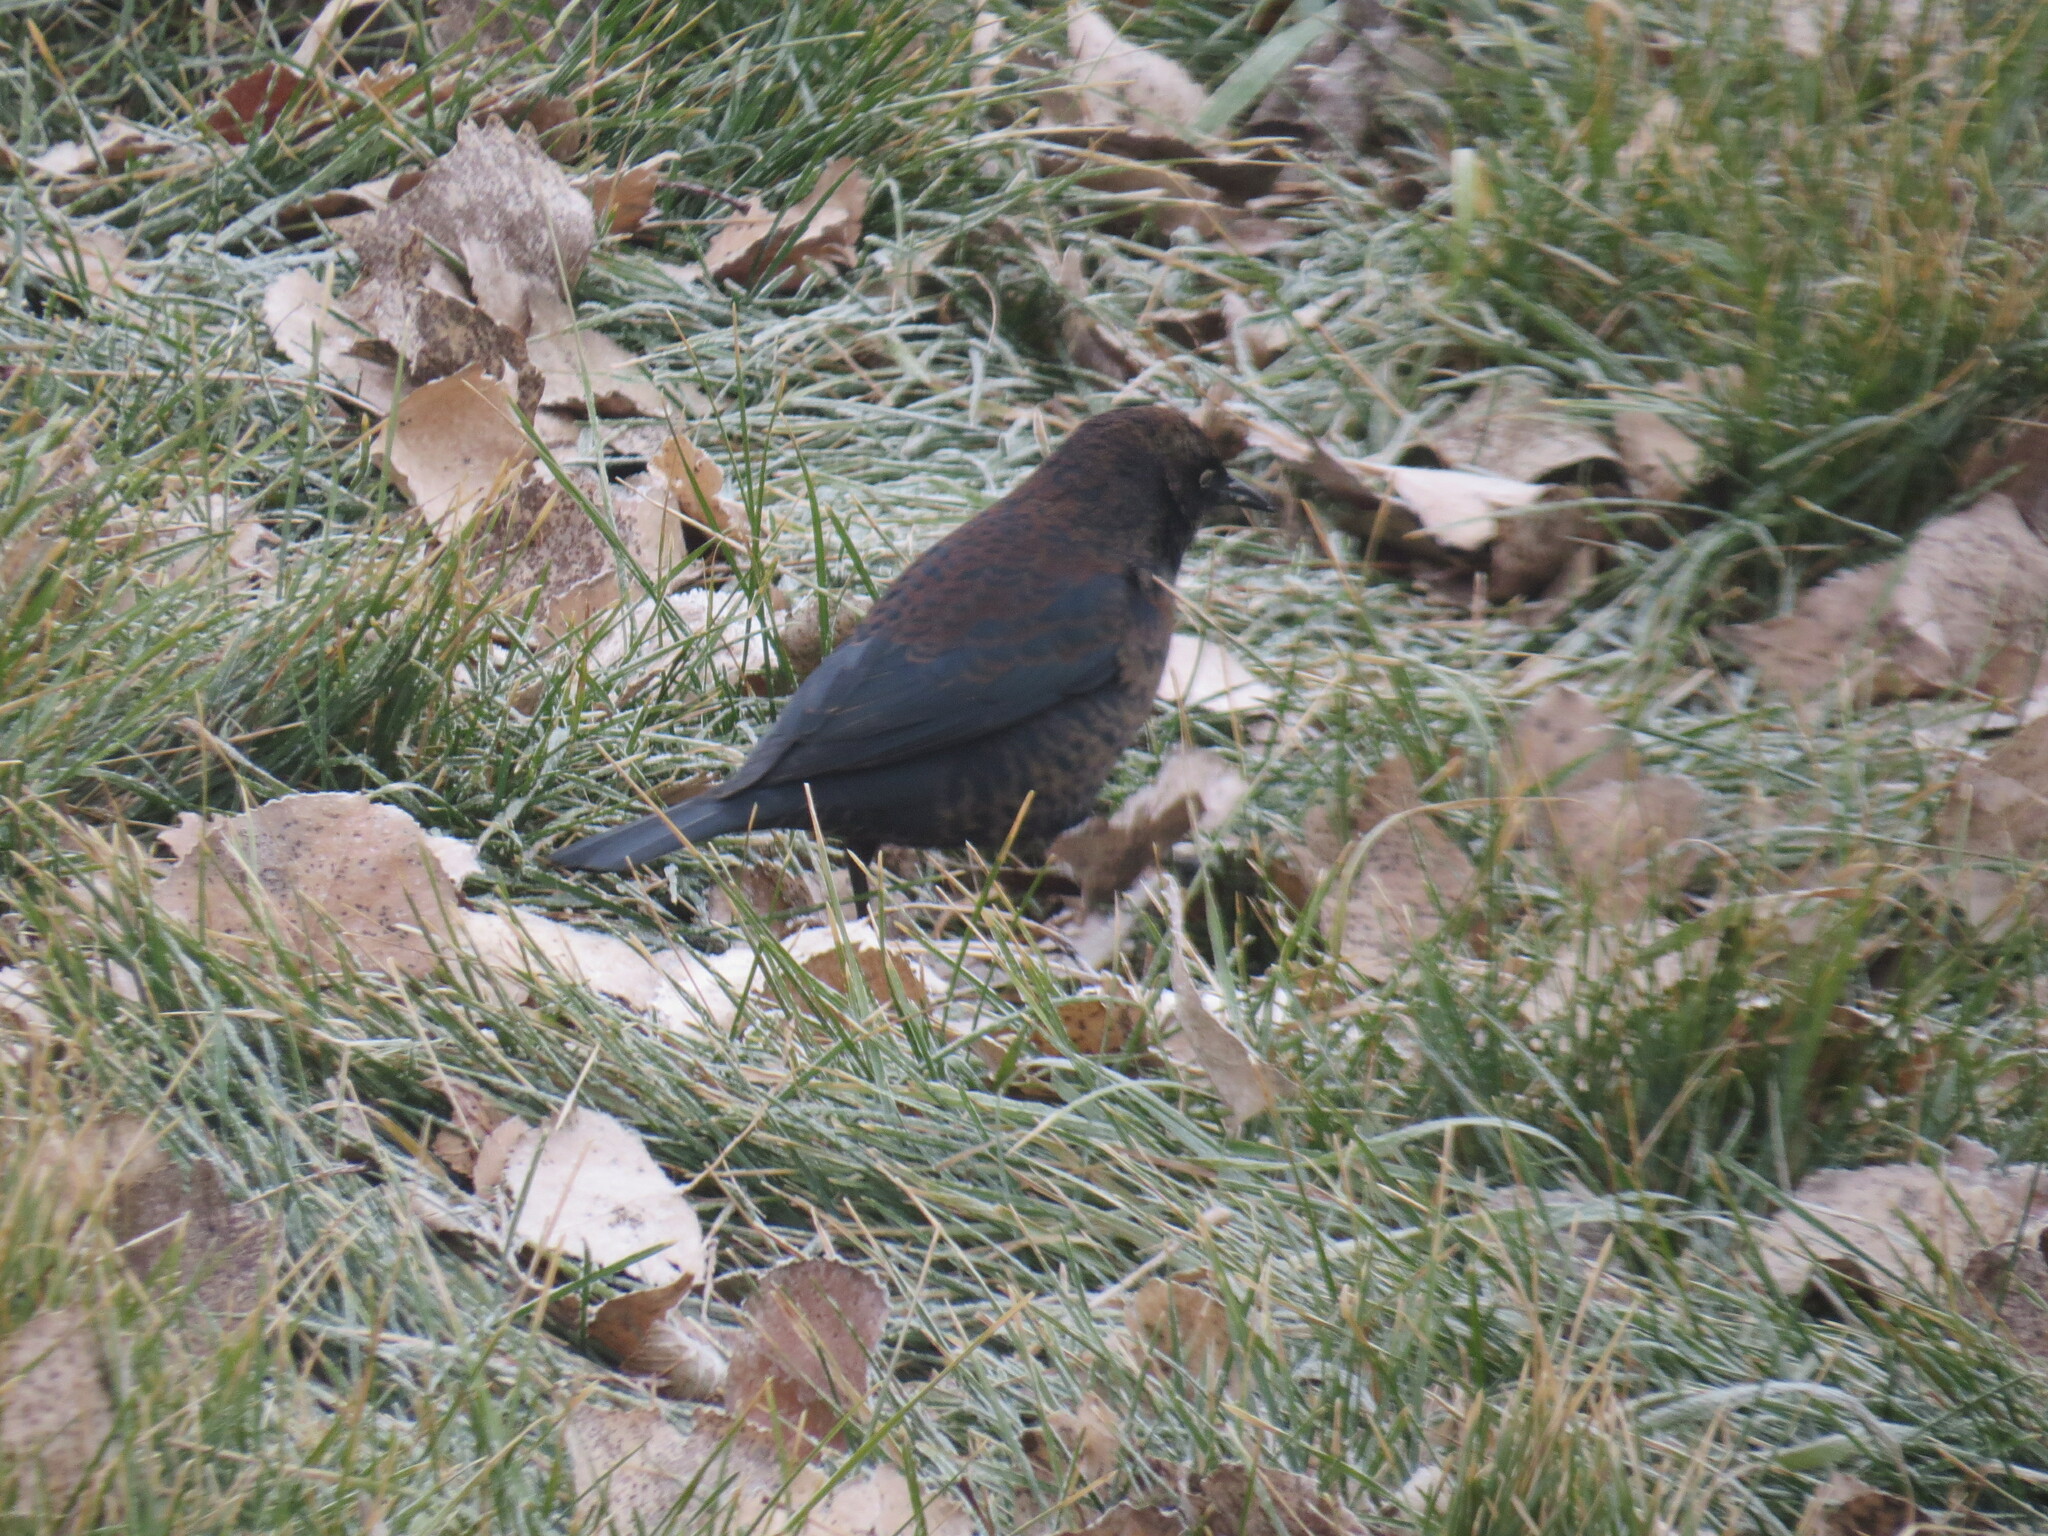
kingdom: Animalia
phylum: Chordata
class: Aves
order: Passeriformes
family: Icteridae
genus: Euphagus
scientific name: Euphagus carolinus
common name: Rusty blackbird
